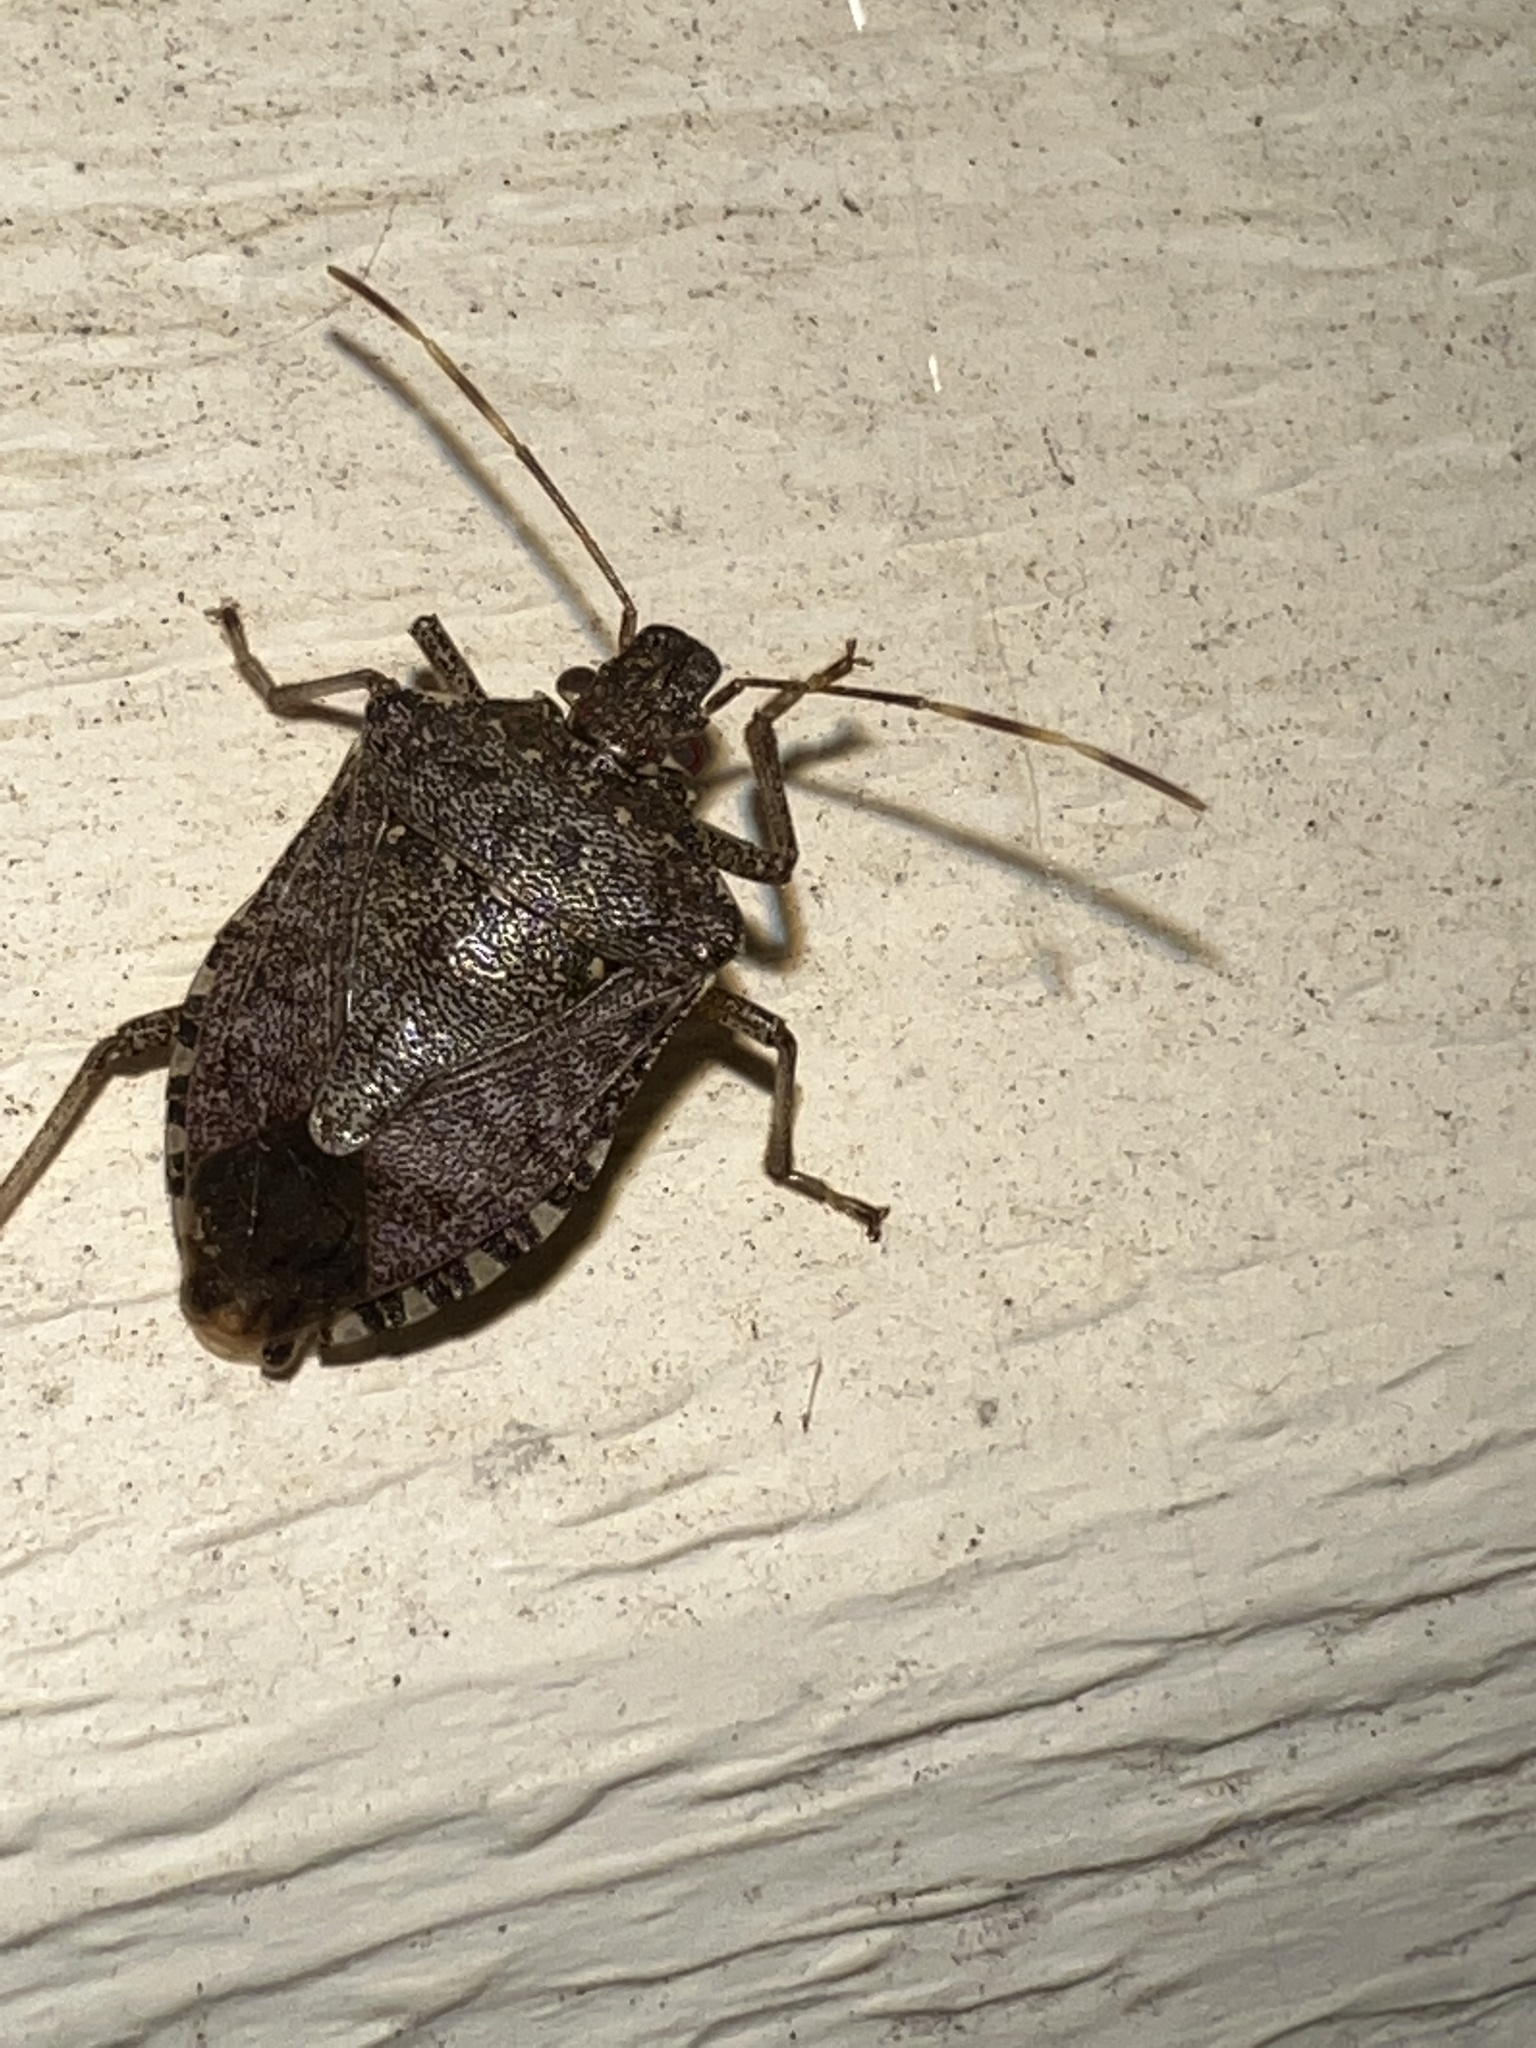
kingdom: Animalia
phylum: Arthropoda
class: Insecta
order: Hemiptera
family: Pentatomidae
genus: Halyomorpha
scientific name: Halyomorpha halys
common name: Brown marmorated stink bug
